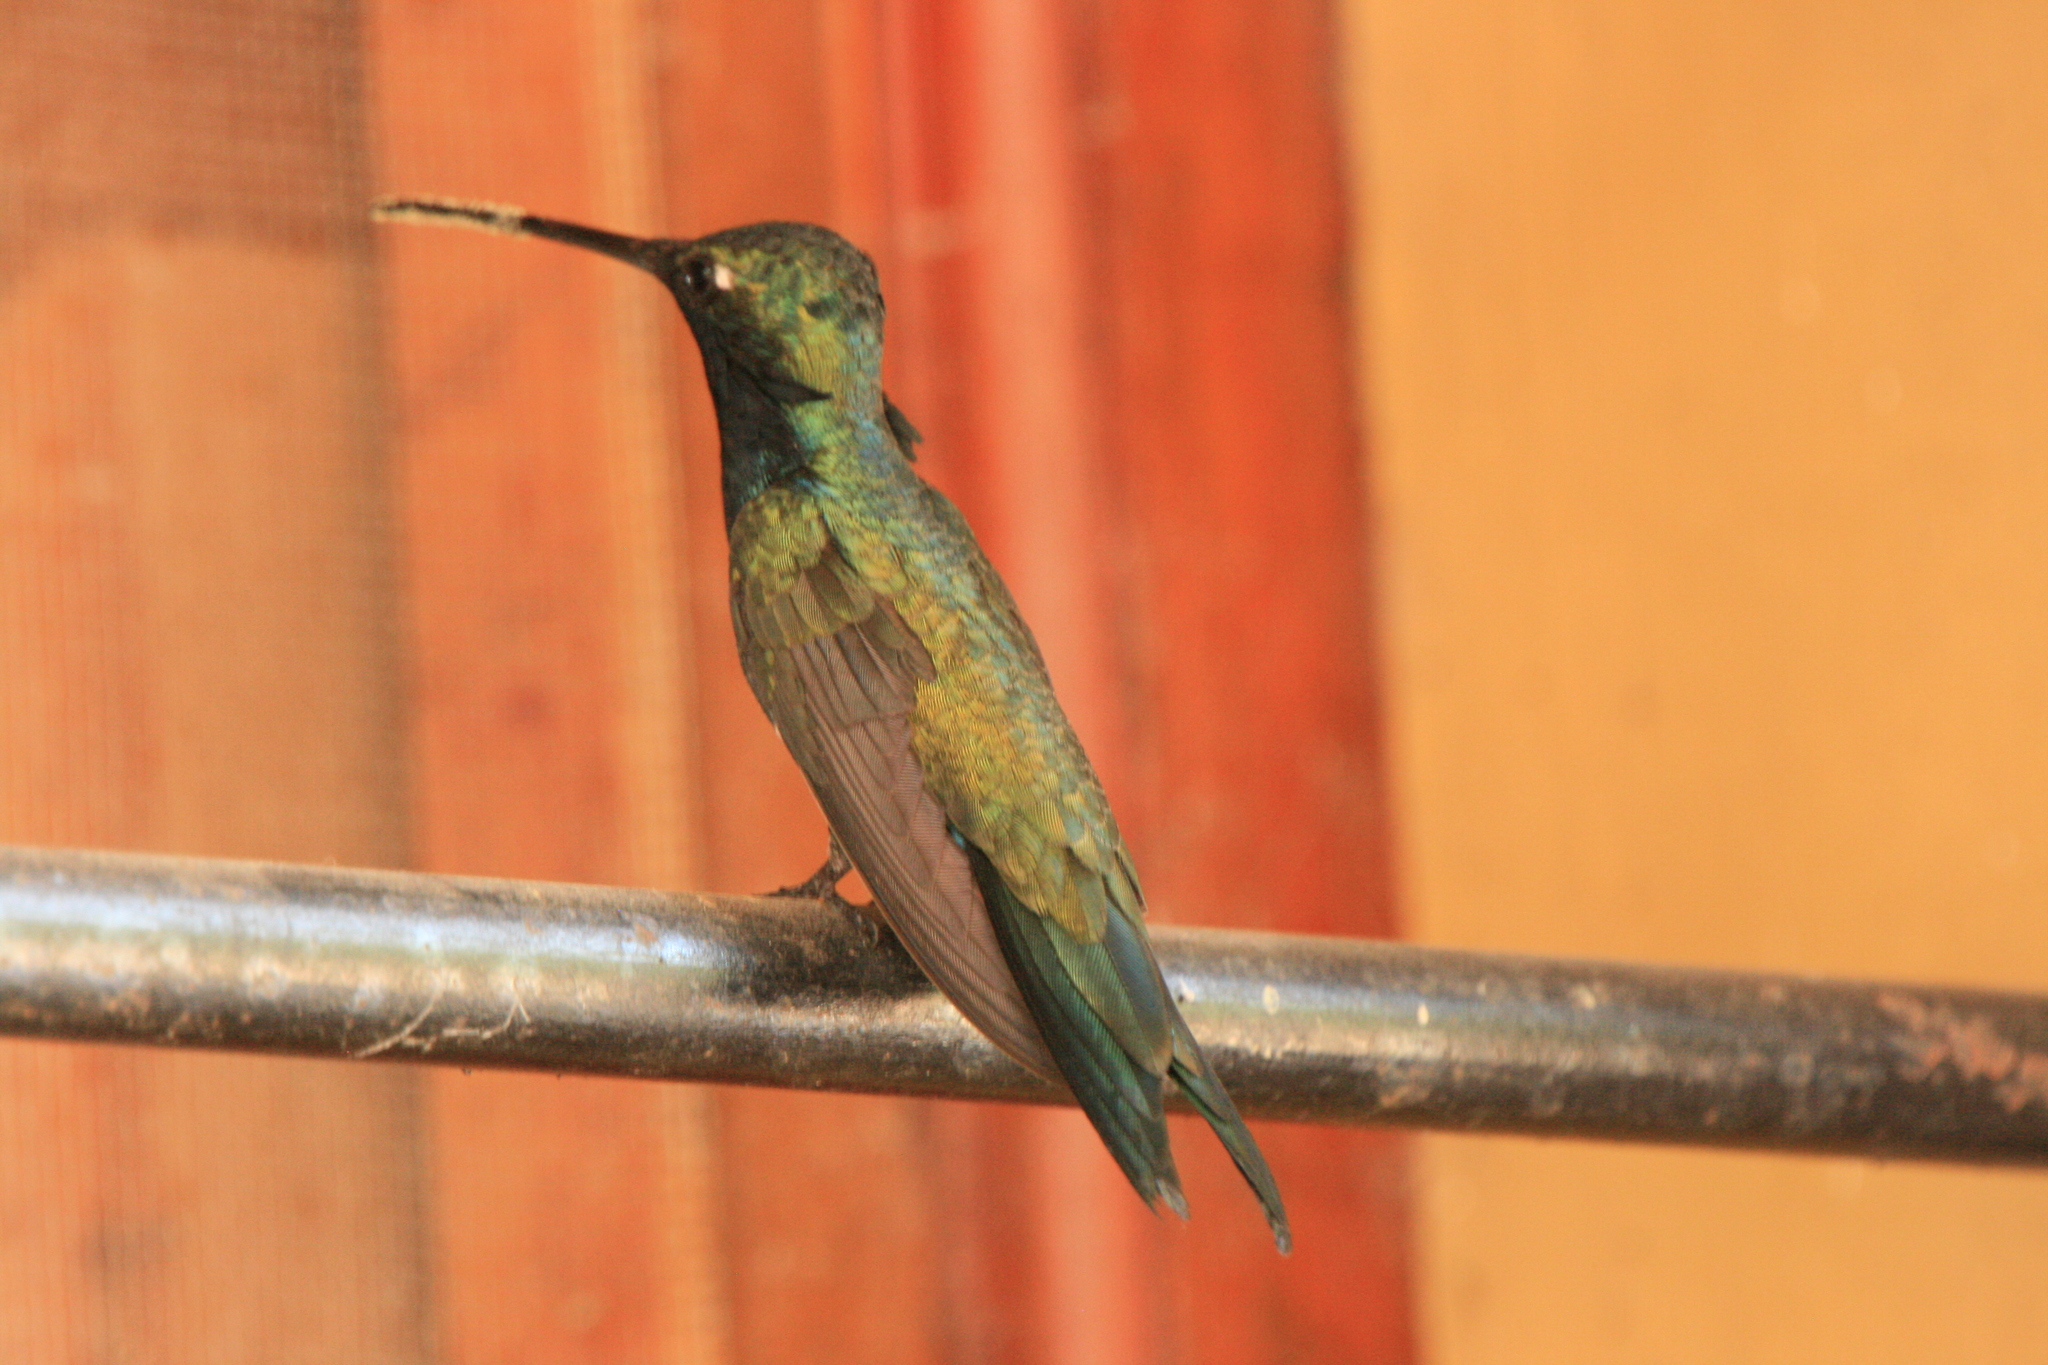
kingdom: Animalia
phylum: Chordata
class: Aves
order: Apodiformes
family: Trochilidae
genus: Heliomaster
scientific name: Heliomaster furcifer
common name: Blue-tufted starthroat
